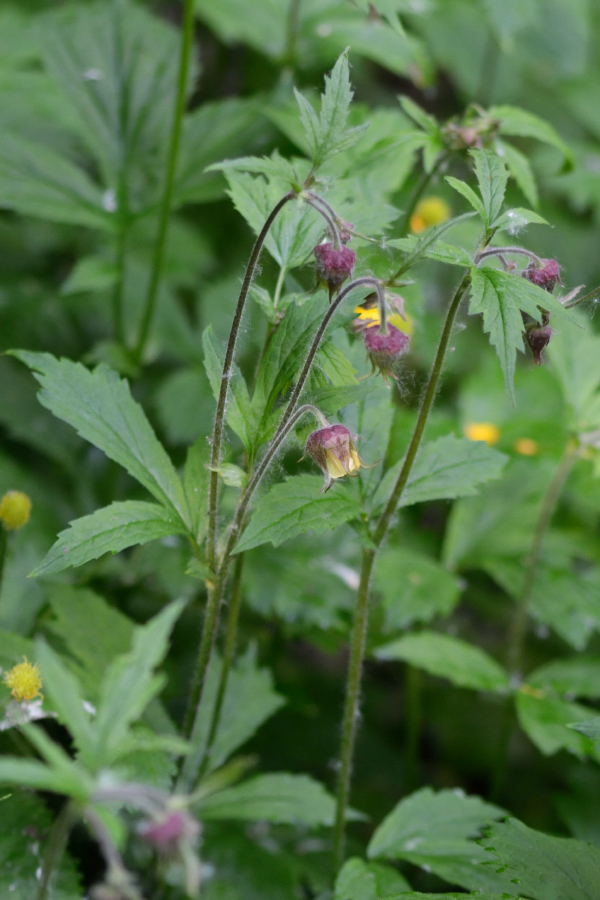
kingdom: Plantae
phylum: Tracheophyta
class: Magnoliopsida
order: Rosales
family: Rosaceae
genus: Geum
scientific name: Geum rivale
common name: Water avens
